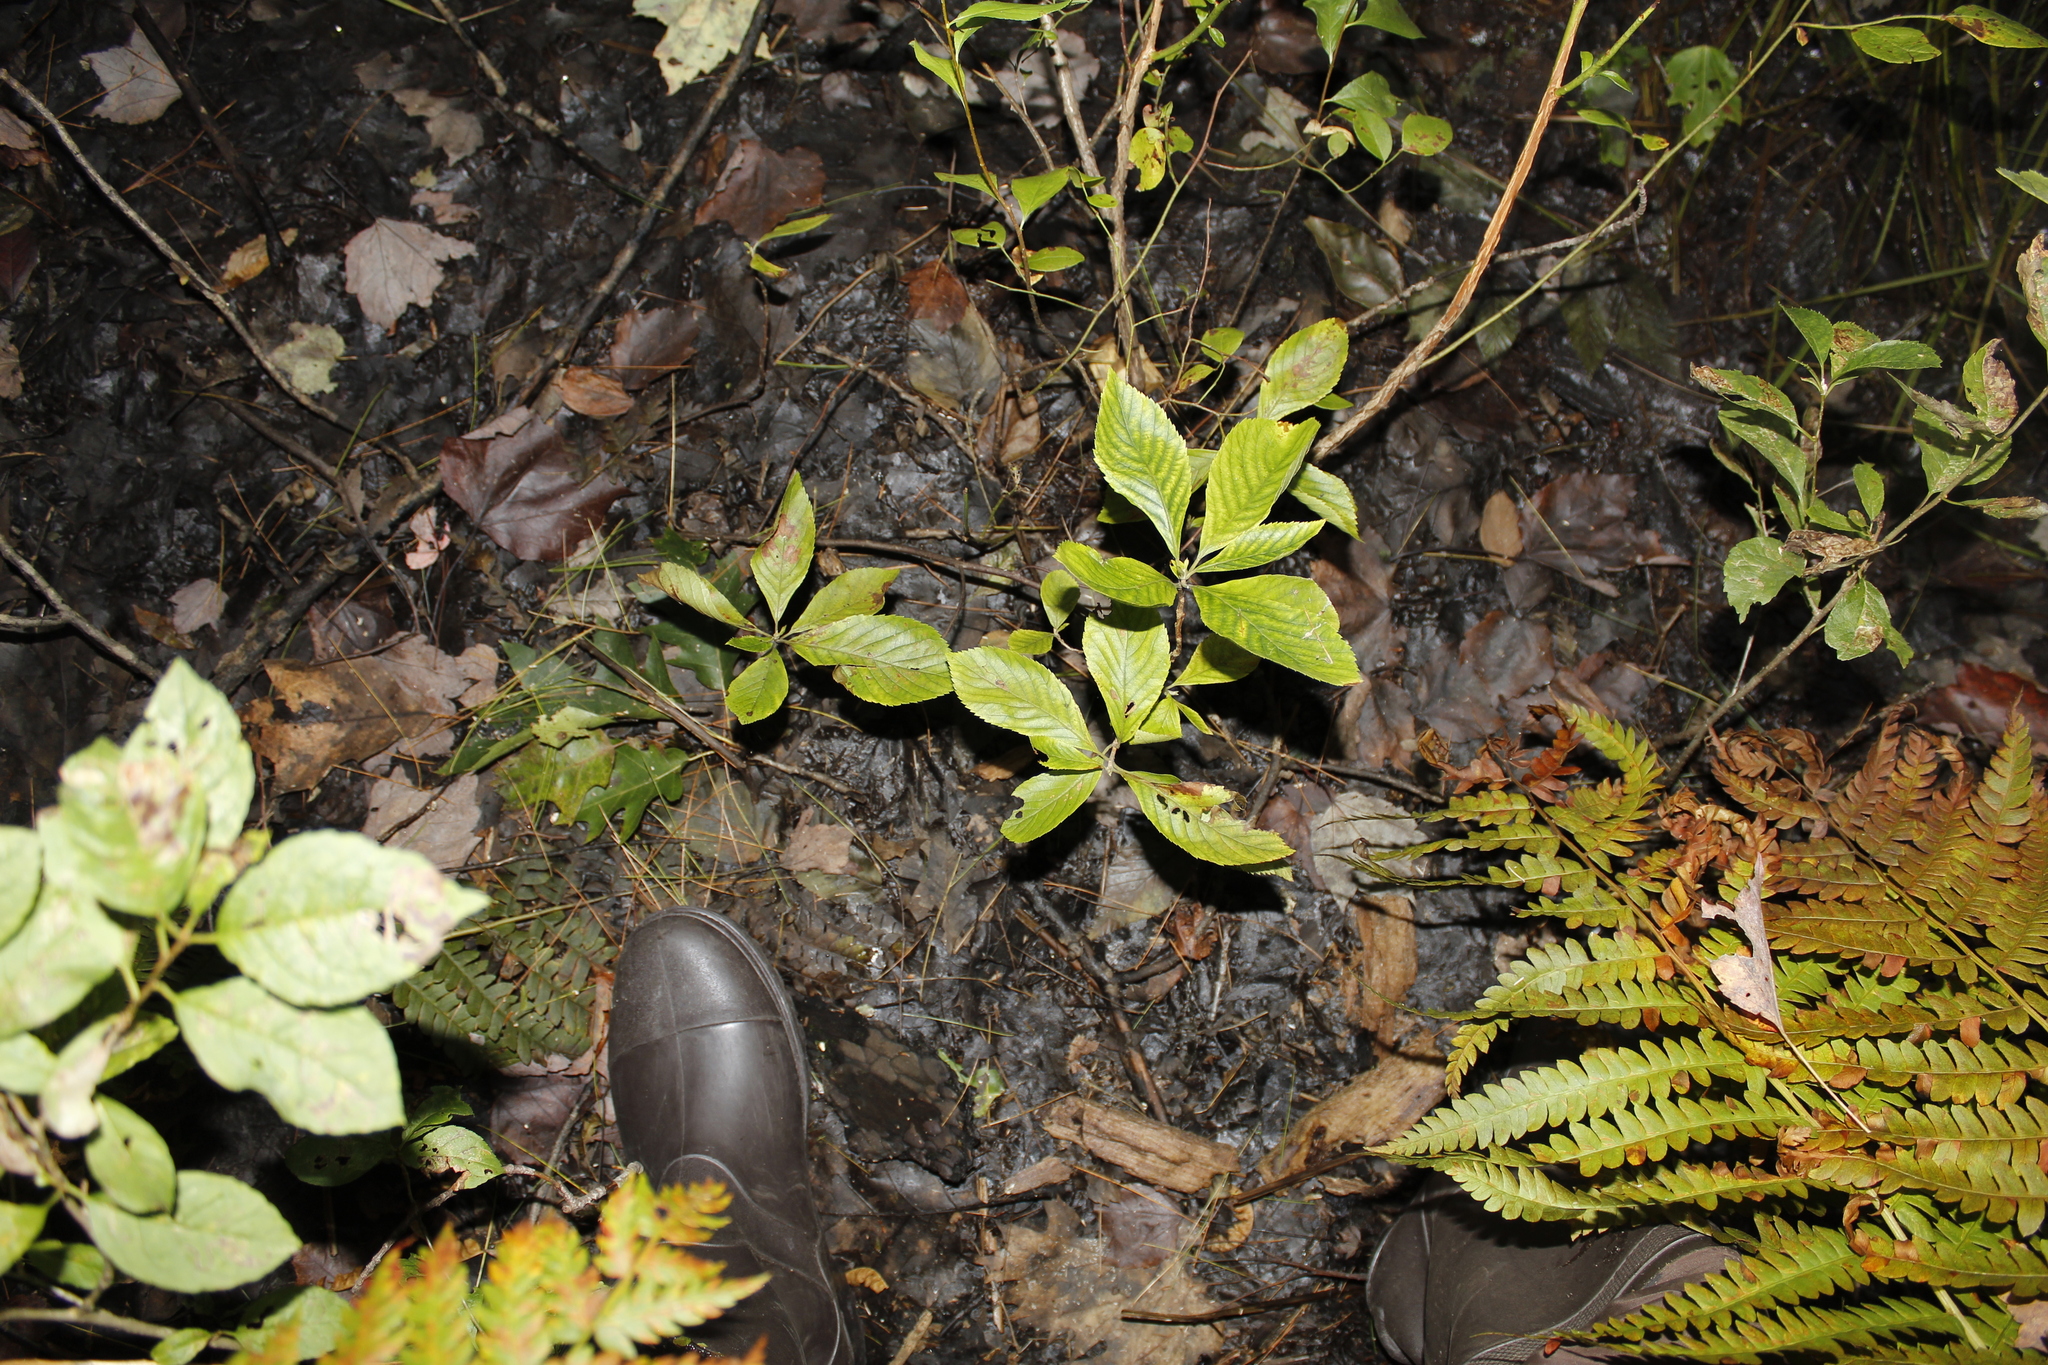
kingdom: Plantae
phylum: Tracheophyta
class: Magnoliopsida
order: Ericales
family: Clethraceae
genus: Clethra
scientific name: Clethra alnifolia
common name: Sweet pepperbush
